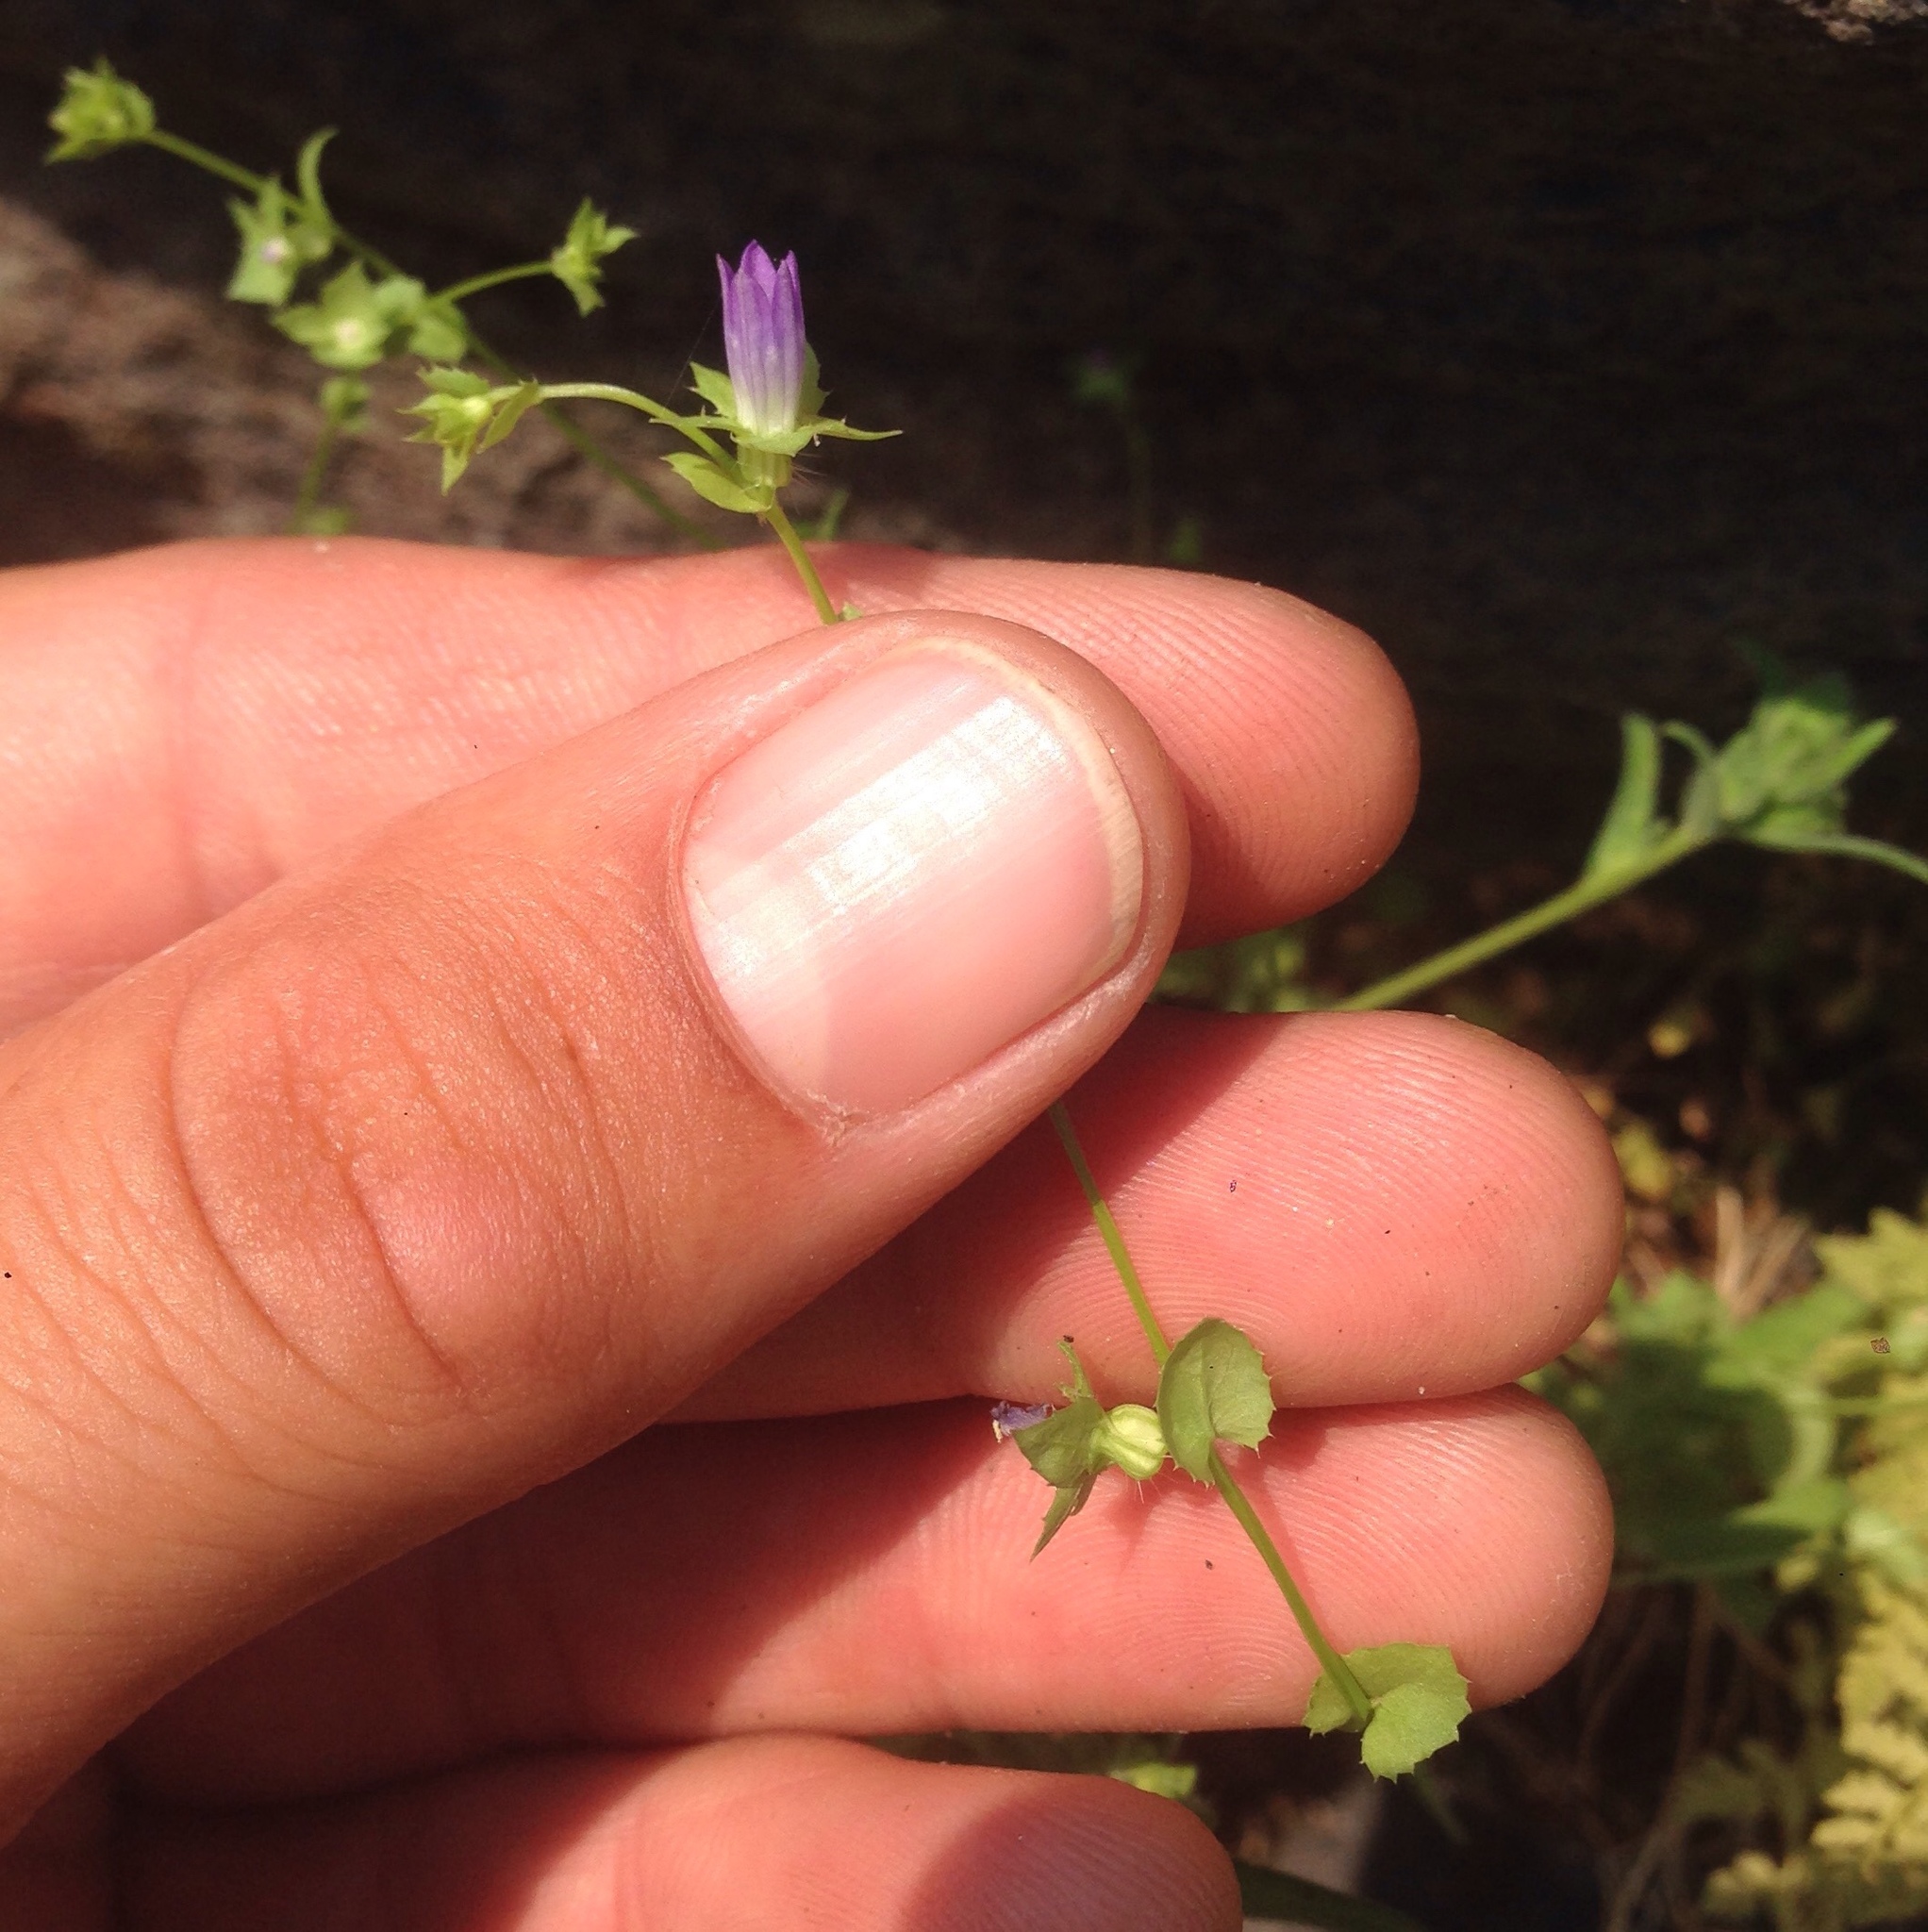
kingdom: Plantae
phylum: Tracheophyta
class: Magnoliopsida
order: Asterales
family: Campanulaceae
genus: Heterocodon
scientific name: Heterocodon rariflorum
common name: Rareflower heterocodon
